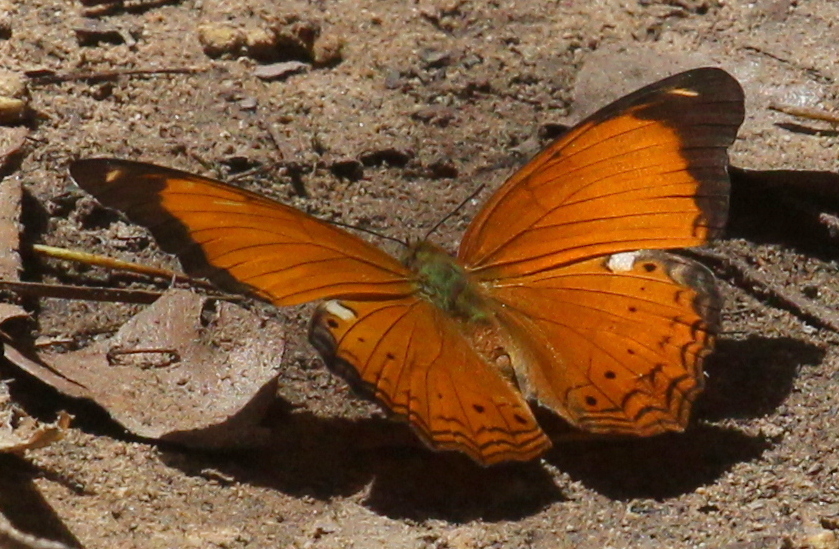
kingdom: Animalia
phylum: Arthropoda
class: Insecta
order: Lepidoptera
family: Nymphalidae
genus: Cirrochroa
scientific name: Cirrochroa emalea
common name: Malay yeoman
